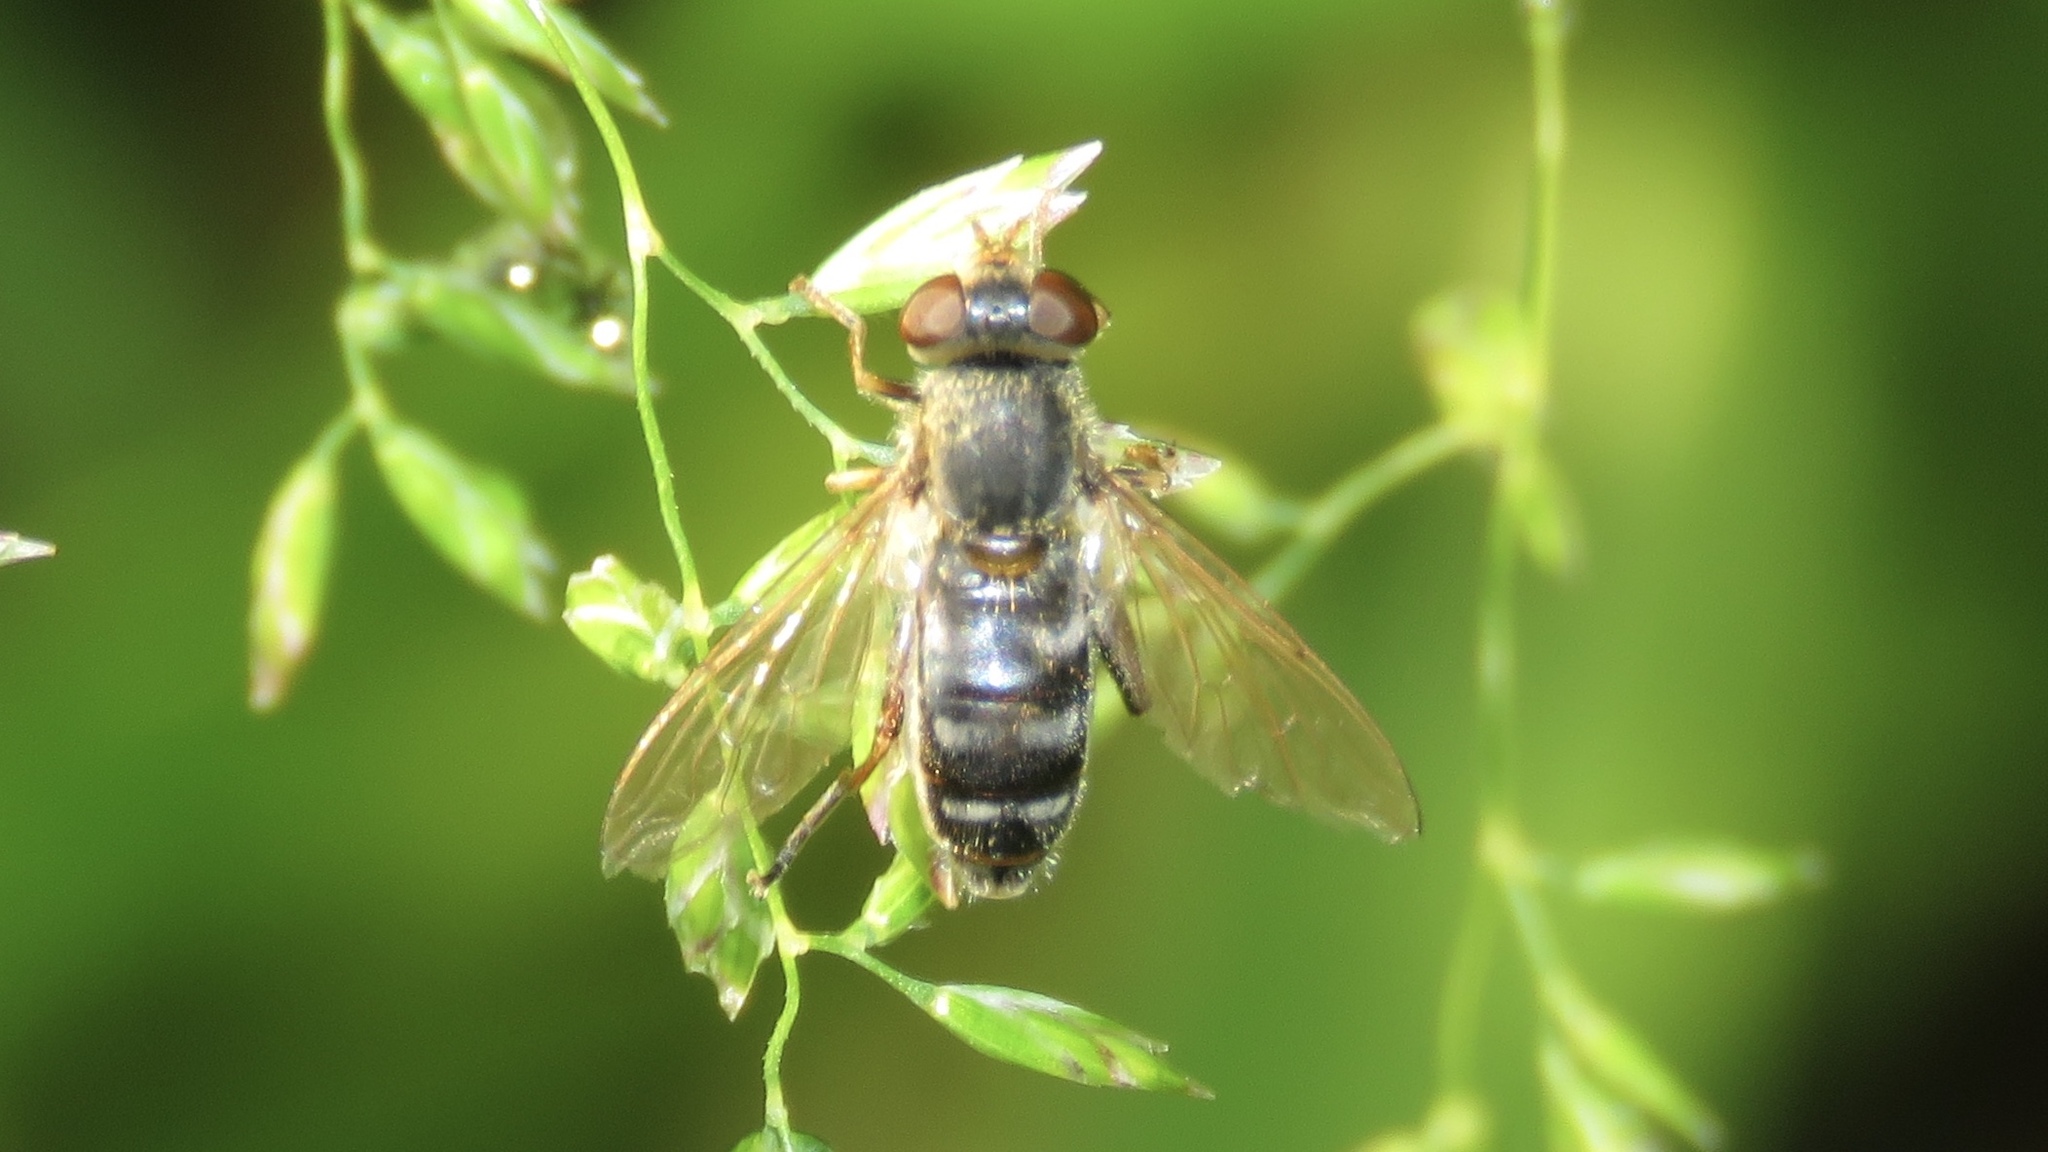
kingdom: Animalia
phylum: Arthropoda
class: Insecta
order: Diptera
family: Syrphidae
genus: Anasimyia
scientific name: Anasimyia bilinearis
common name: Two-lined swamp fly
